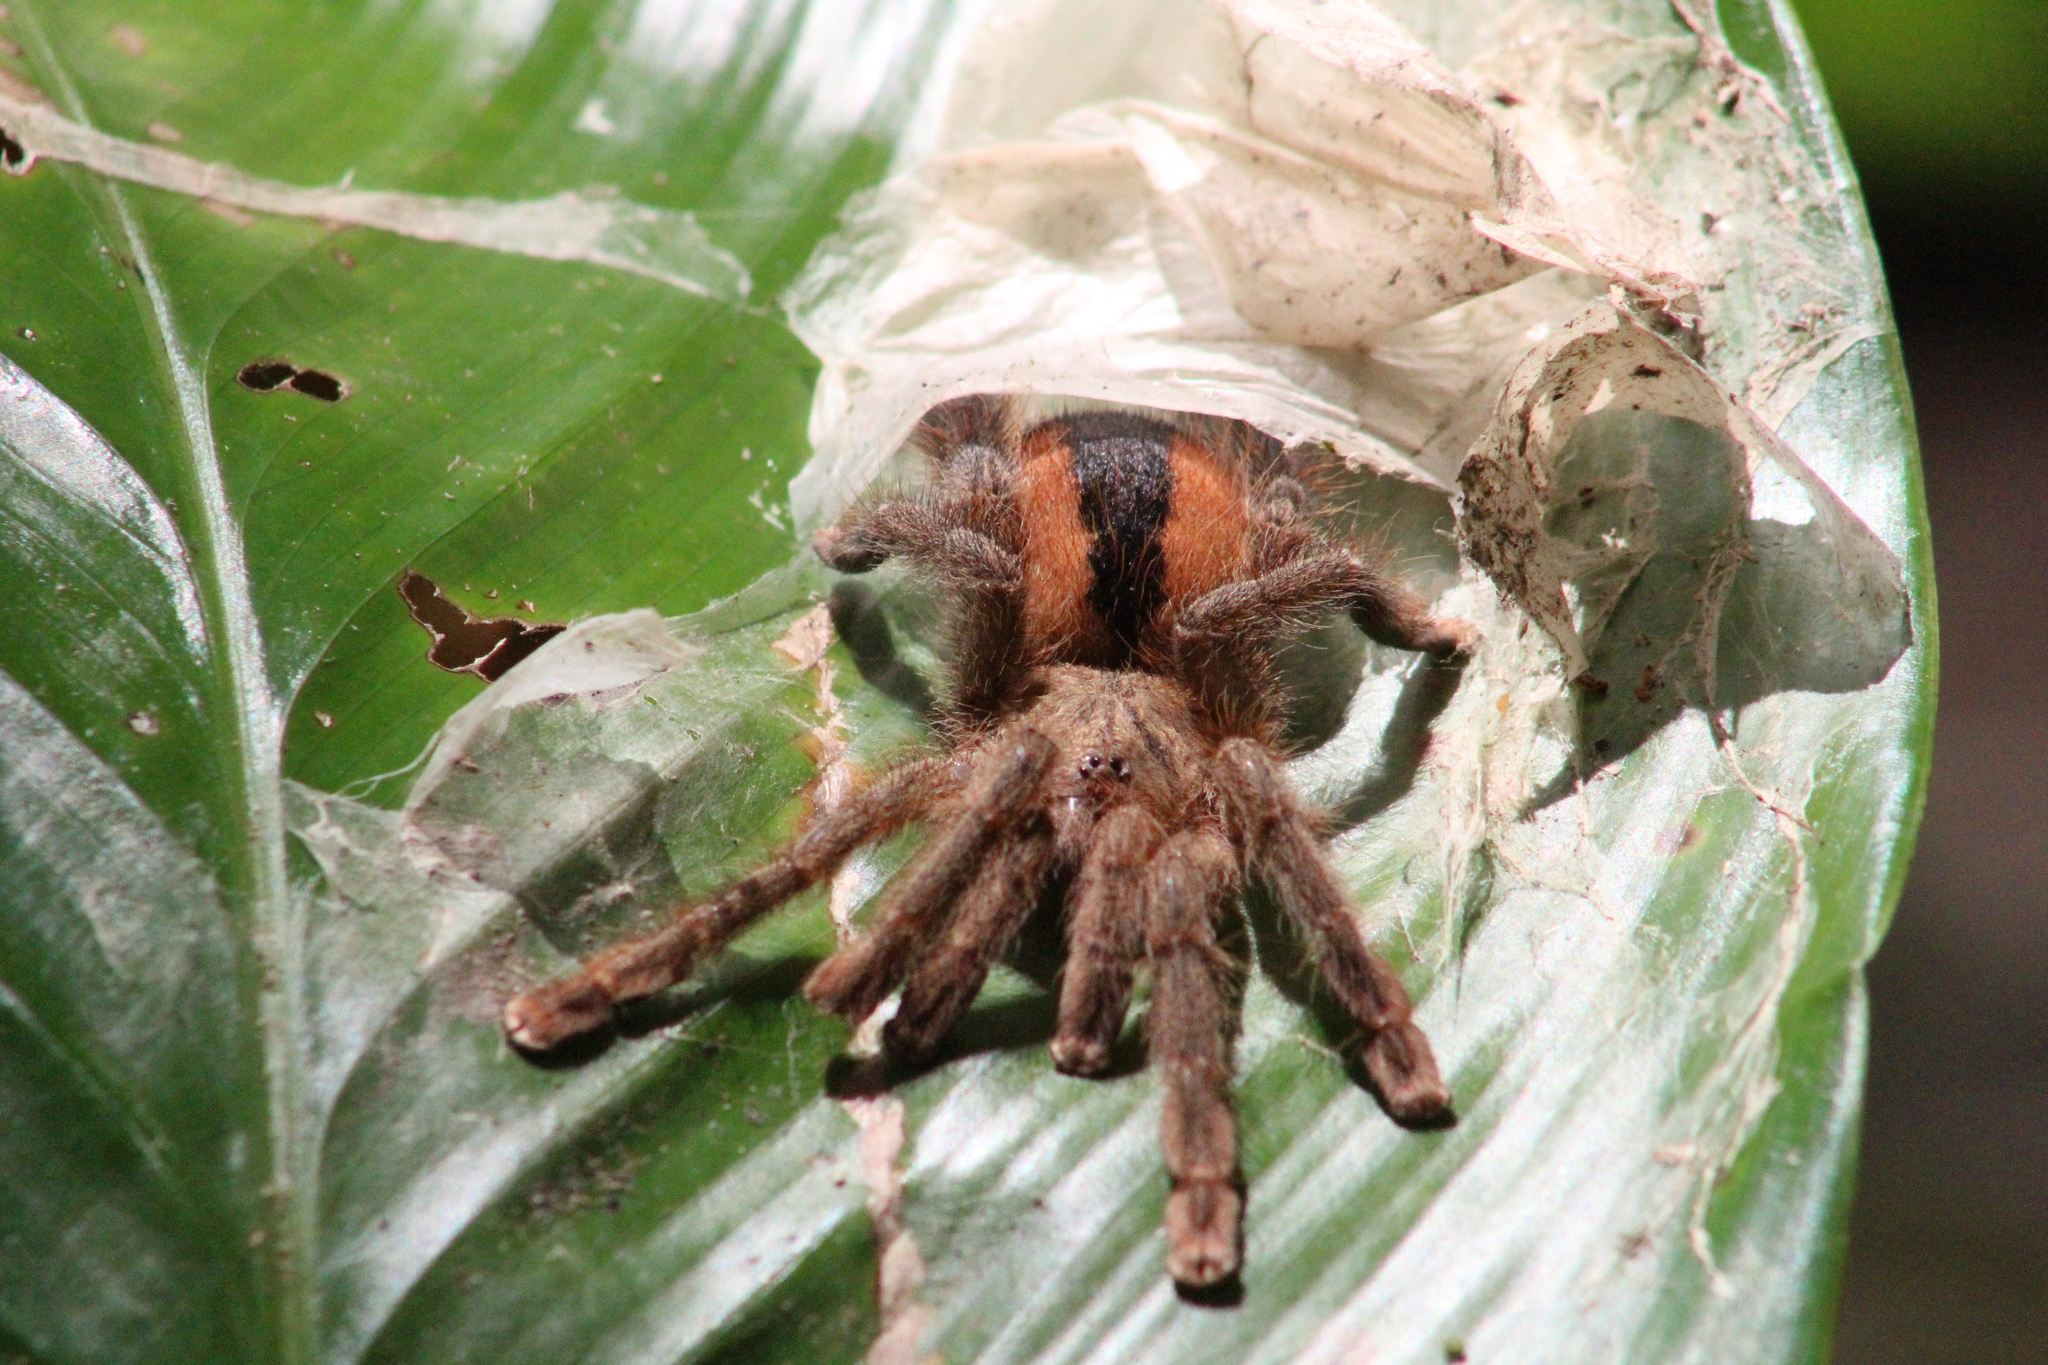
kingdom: Animalia
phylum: Arthropoda
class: Arachnida
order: Araneae
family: Theraphosidae
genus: Avicularia
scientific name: Avicularia hirschii
